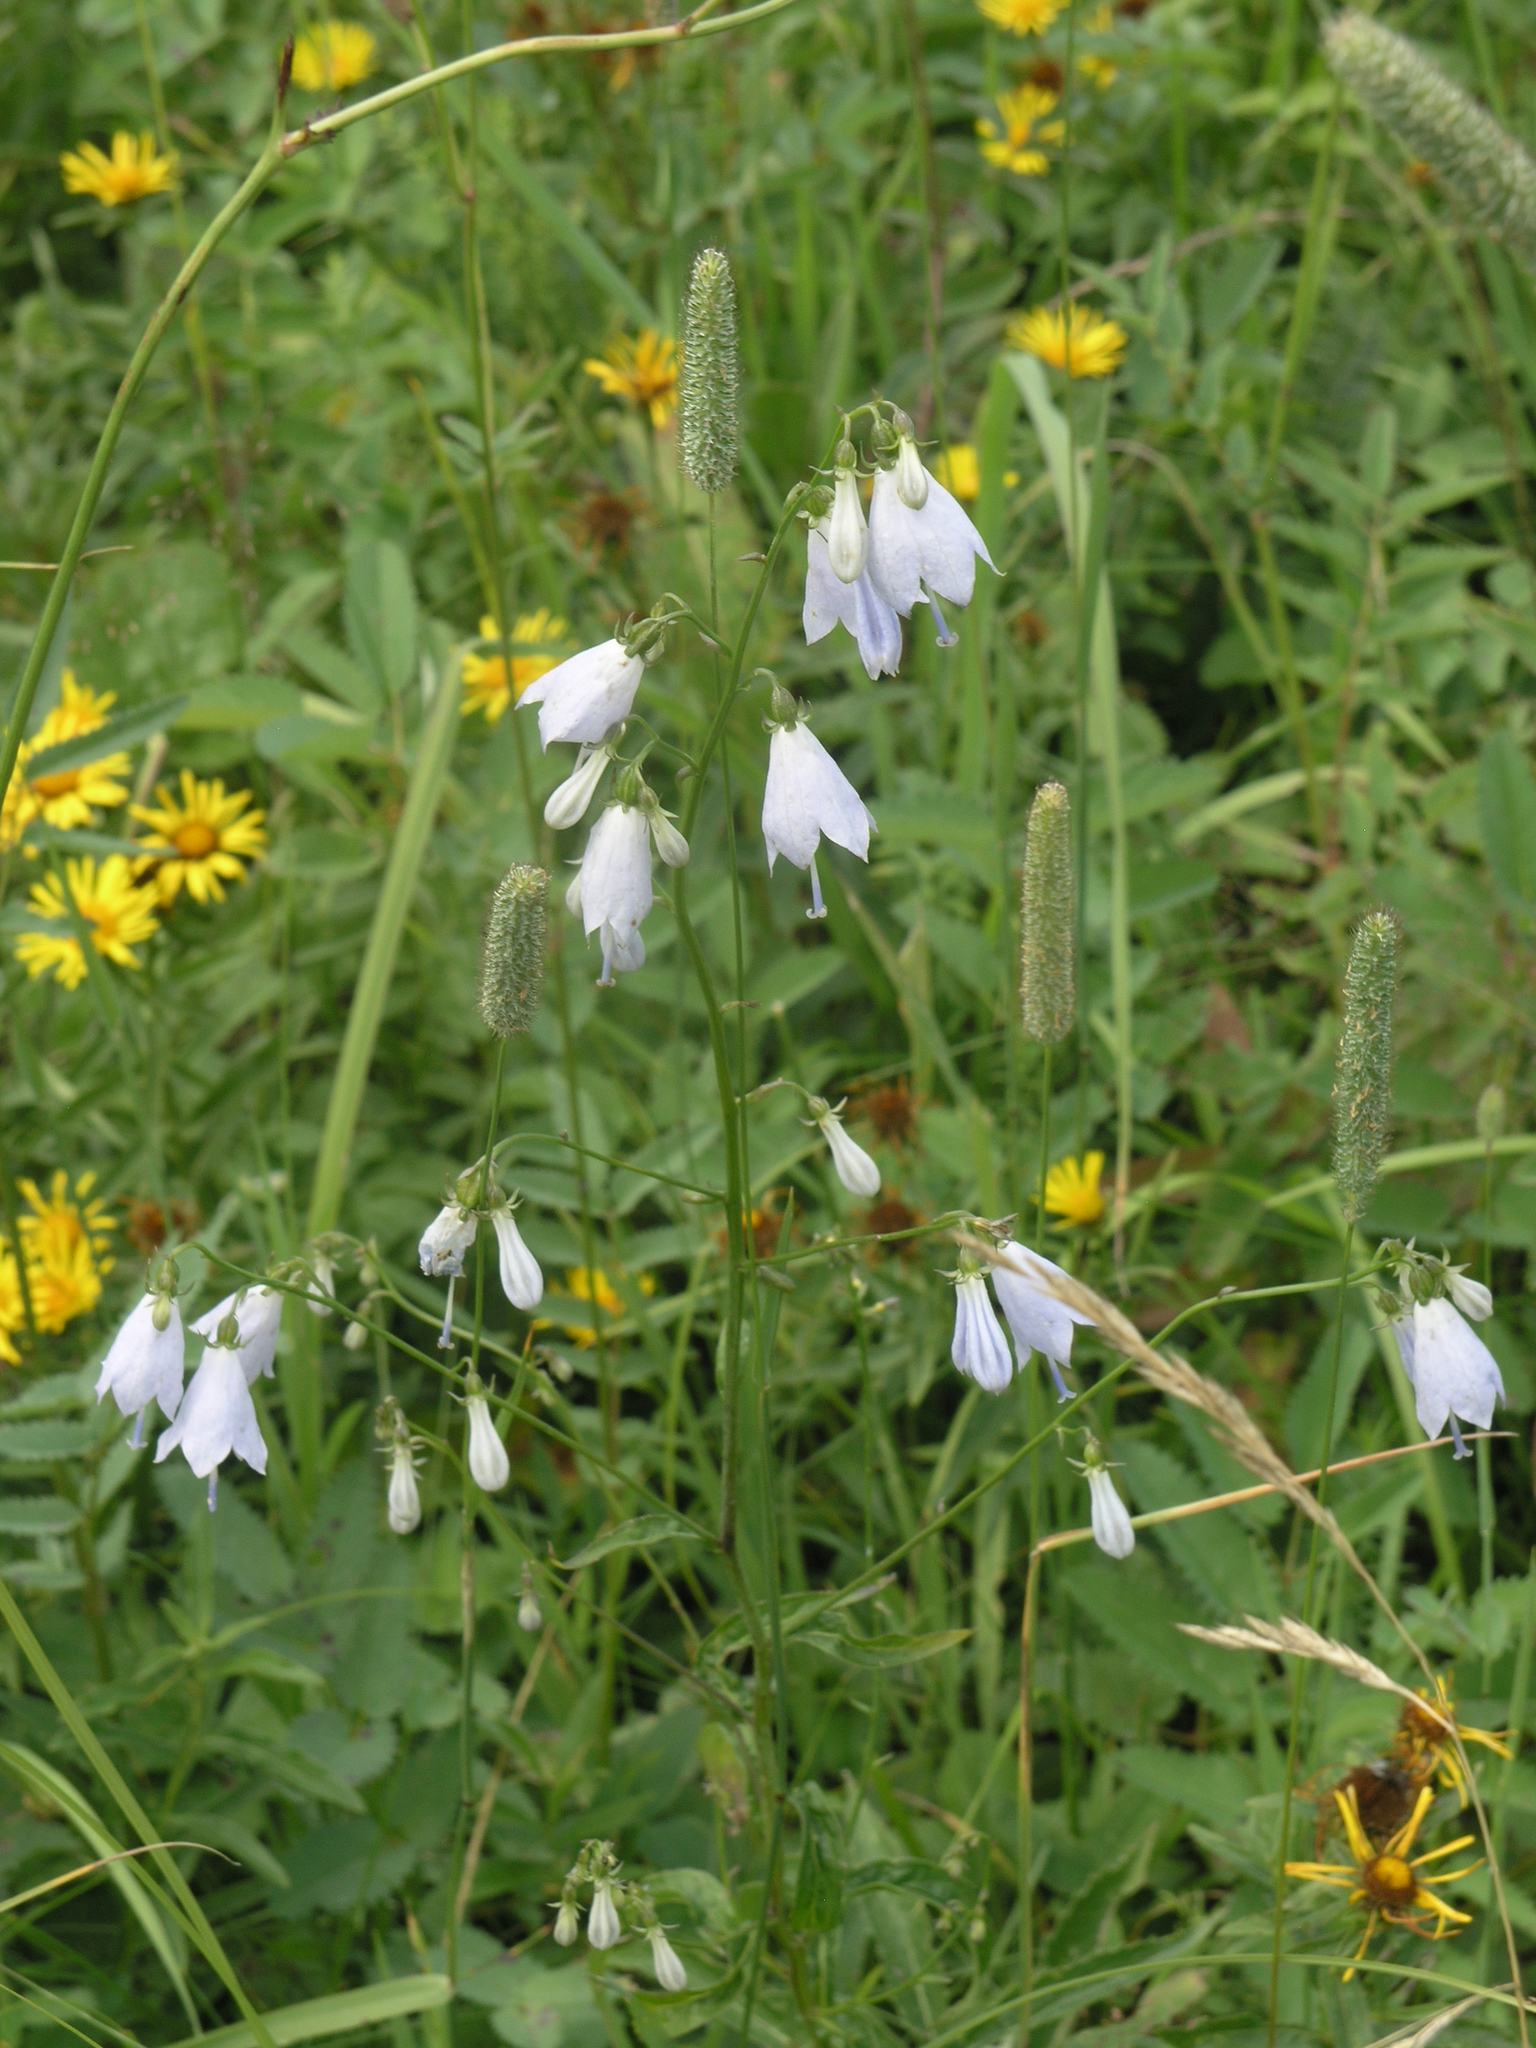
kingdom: Plantae
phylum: Tracheophyta
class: Magnoliopsida
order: Asterales
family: Campanulaceae
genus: Adenophora
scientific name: Adenophora liliifolia
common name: Lilyleaf ladybells
